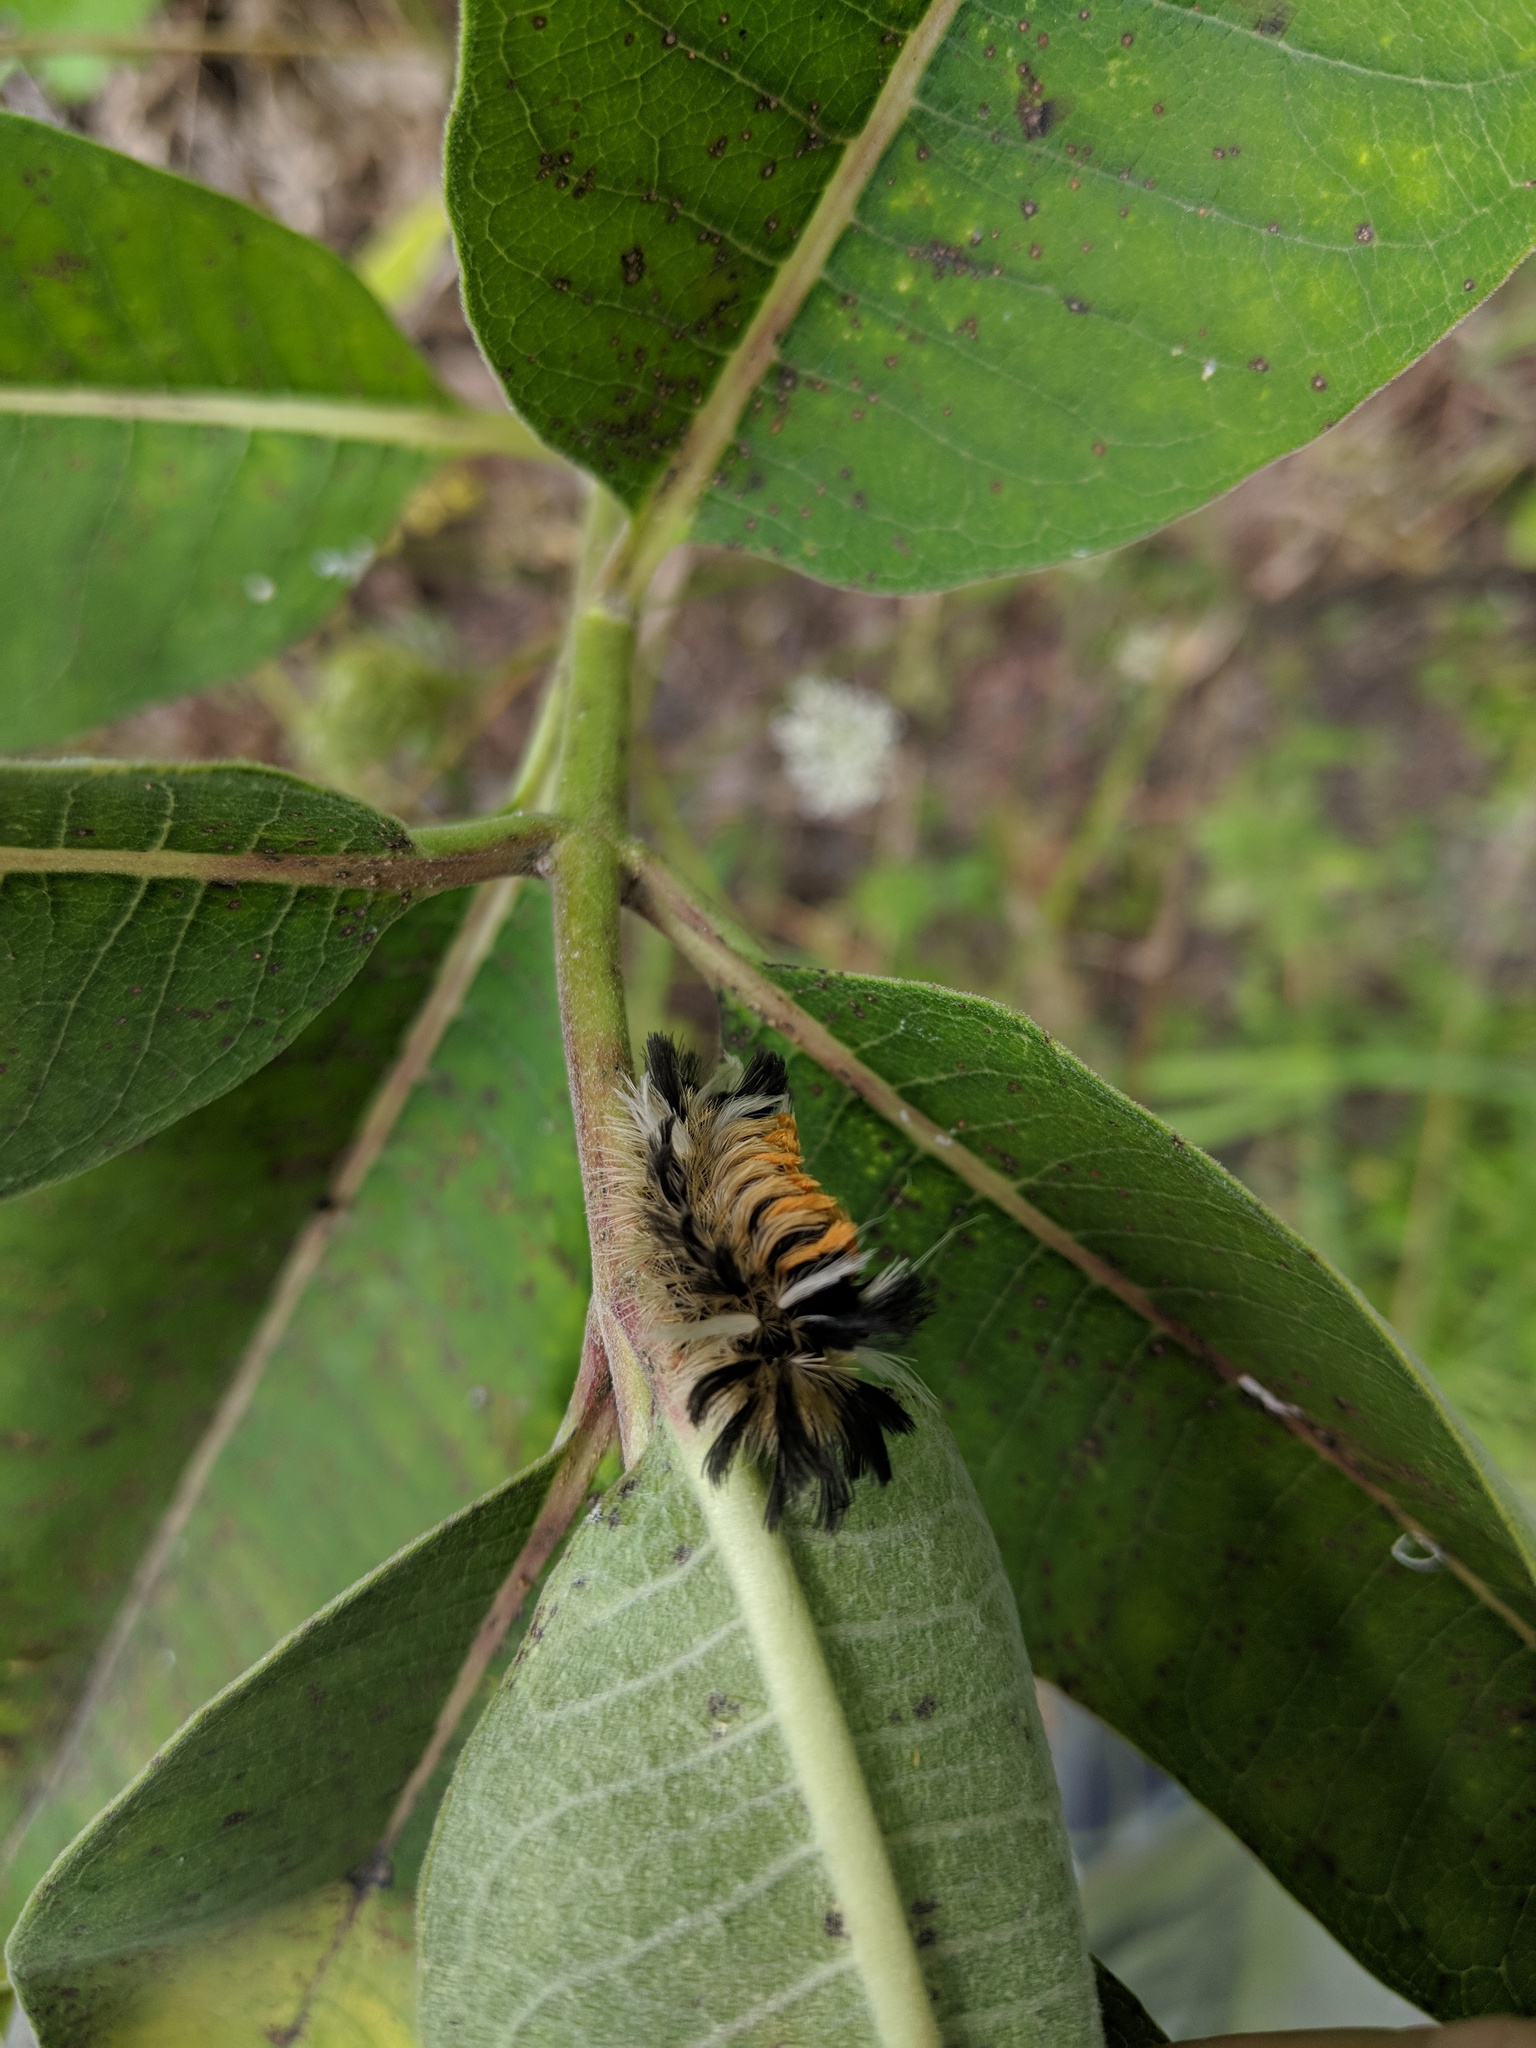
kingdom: Animalia
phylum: Arthropoda
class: Insecta
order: Lepidoptera
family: Erebidae
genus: Euchaetes
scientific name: Euchaetes egle
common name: Milkweed tussock moth
